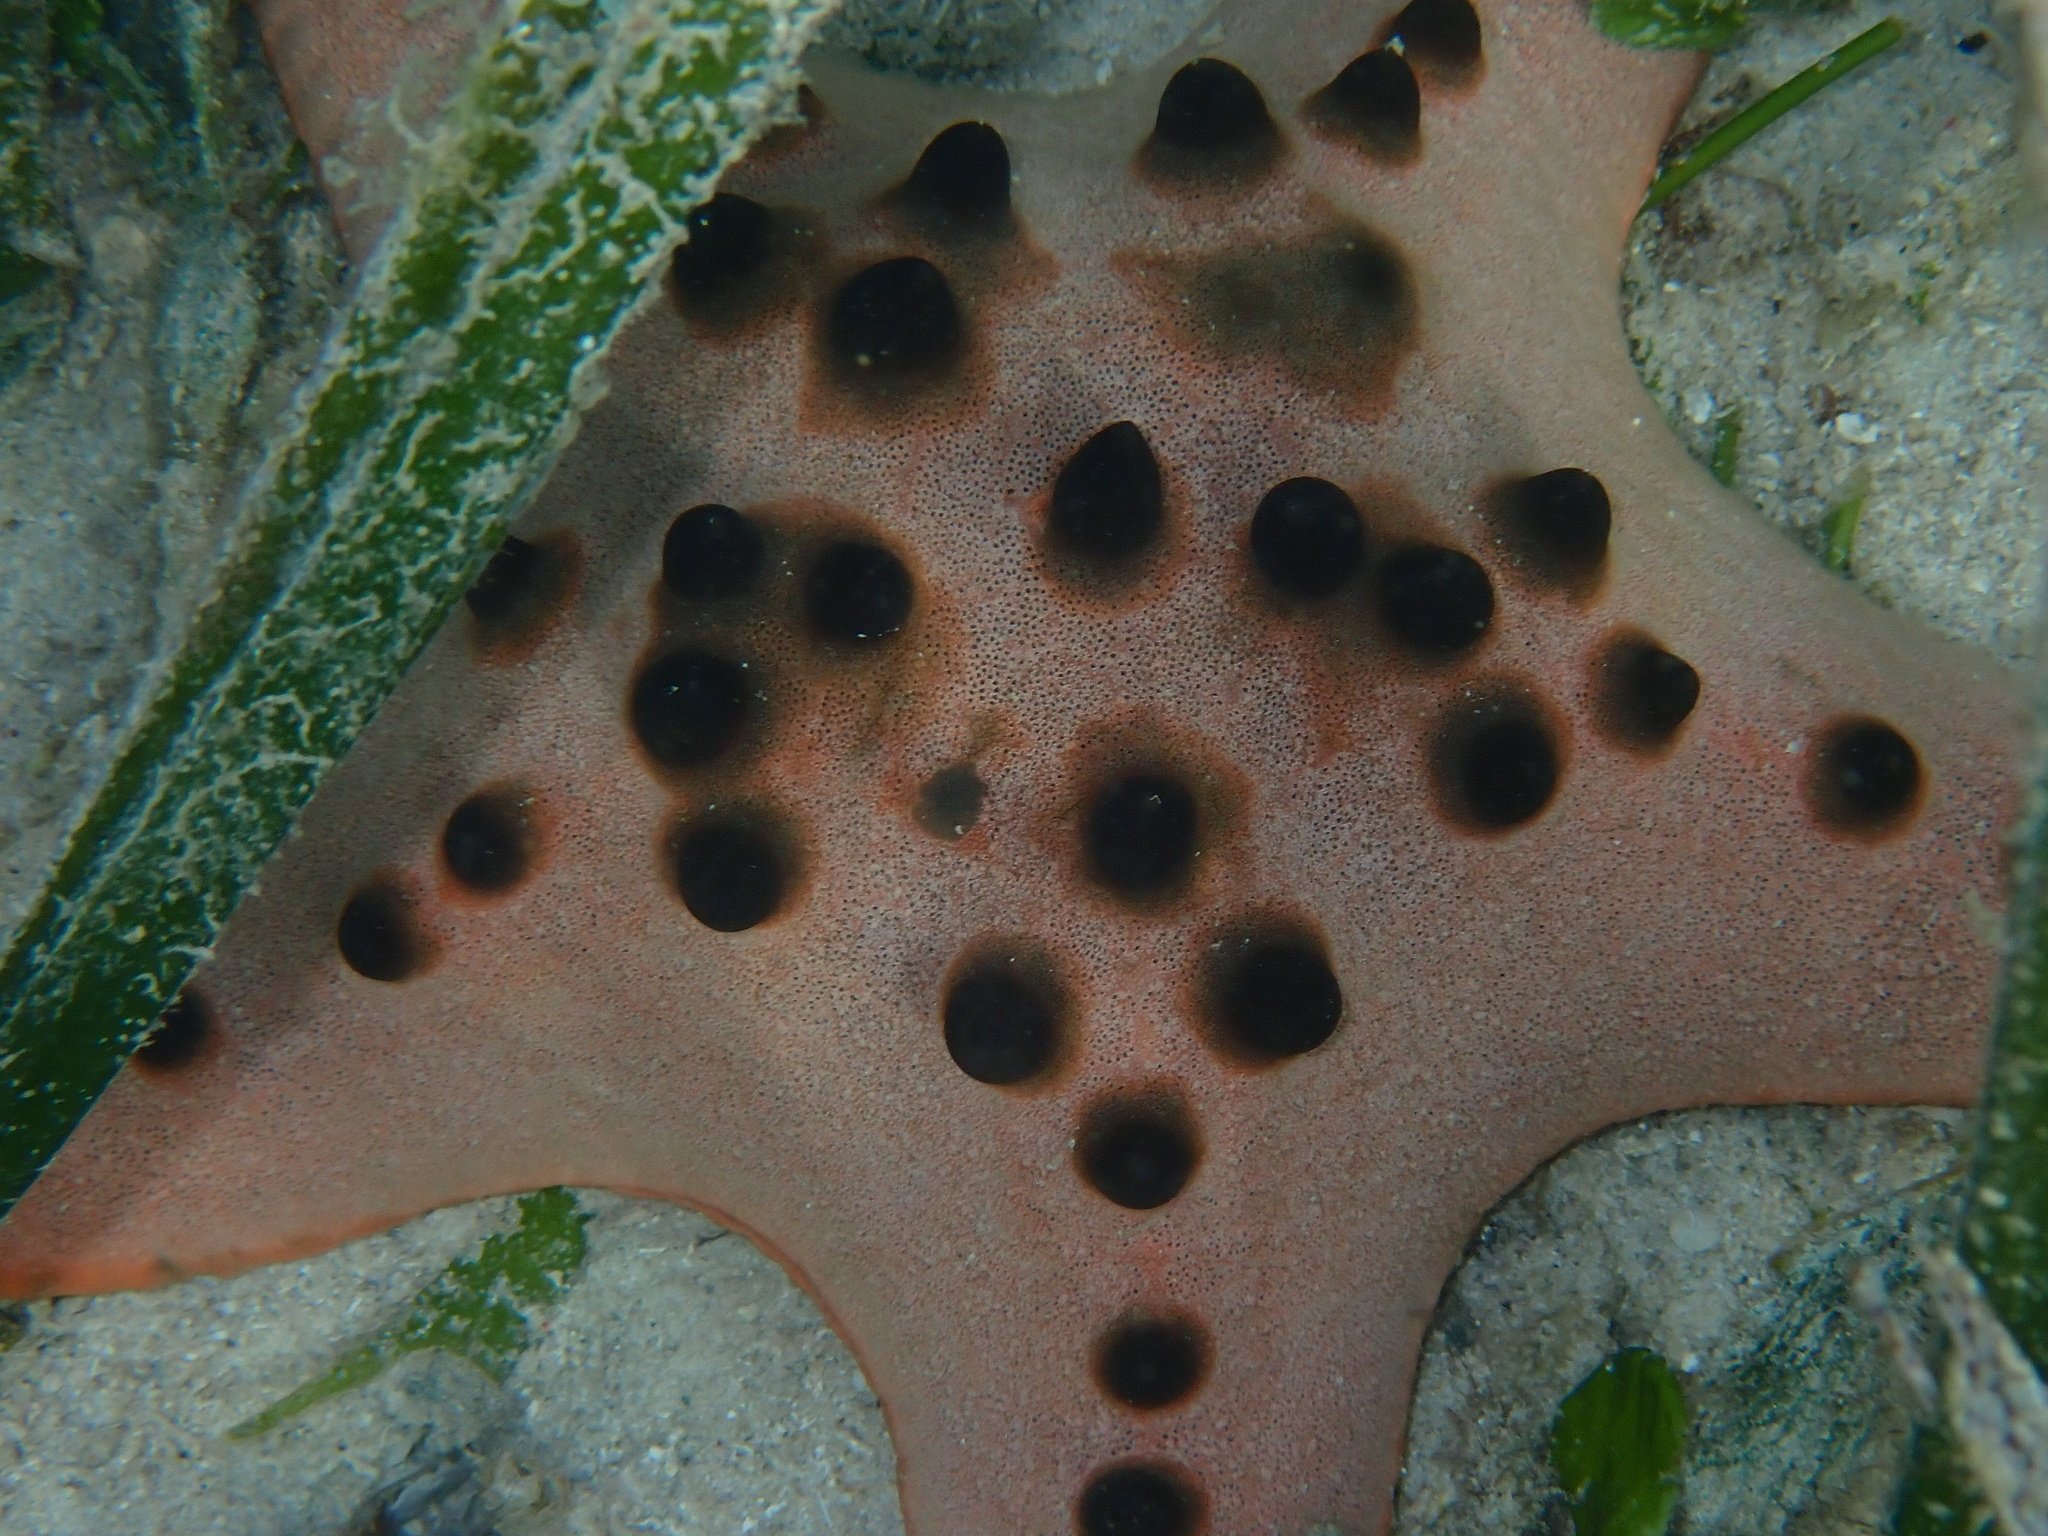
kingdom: Animalia
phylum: Echinodermata
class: Asteroidea
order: Valvatida
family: Oreasteridae
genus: Protoreaster
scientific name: Protoreaster nodosus
